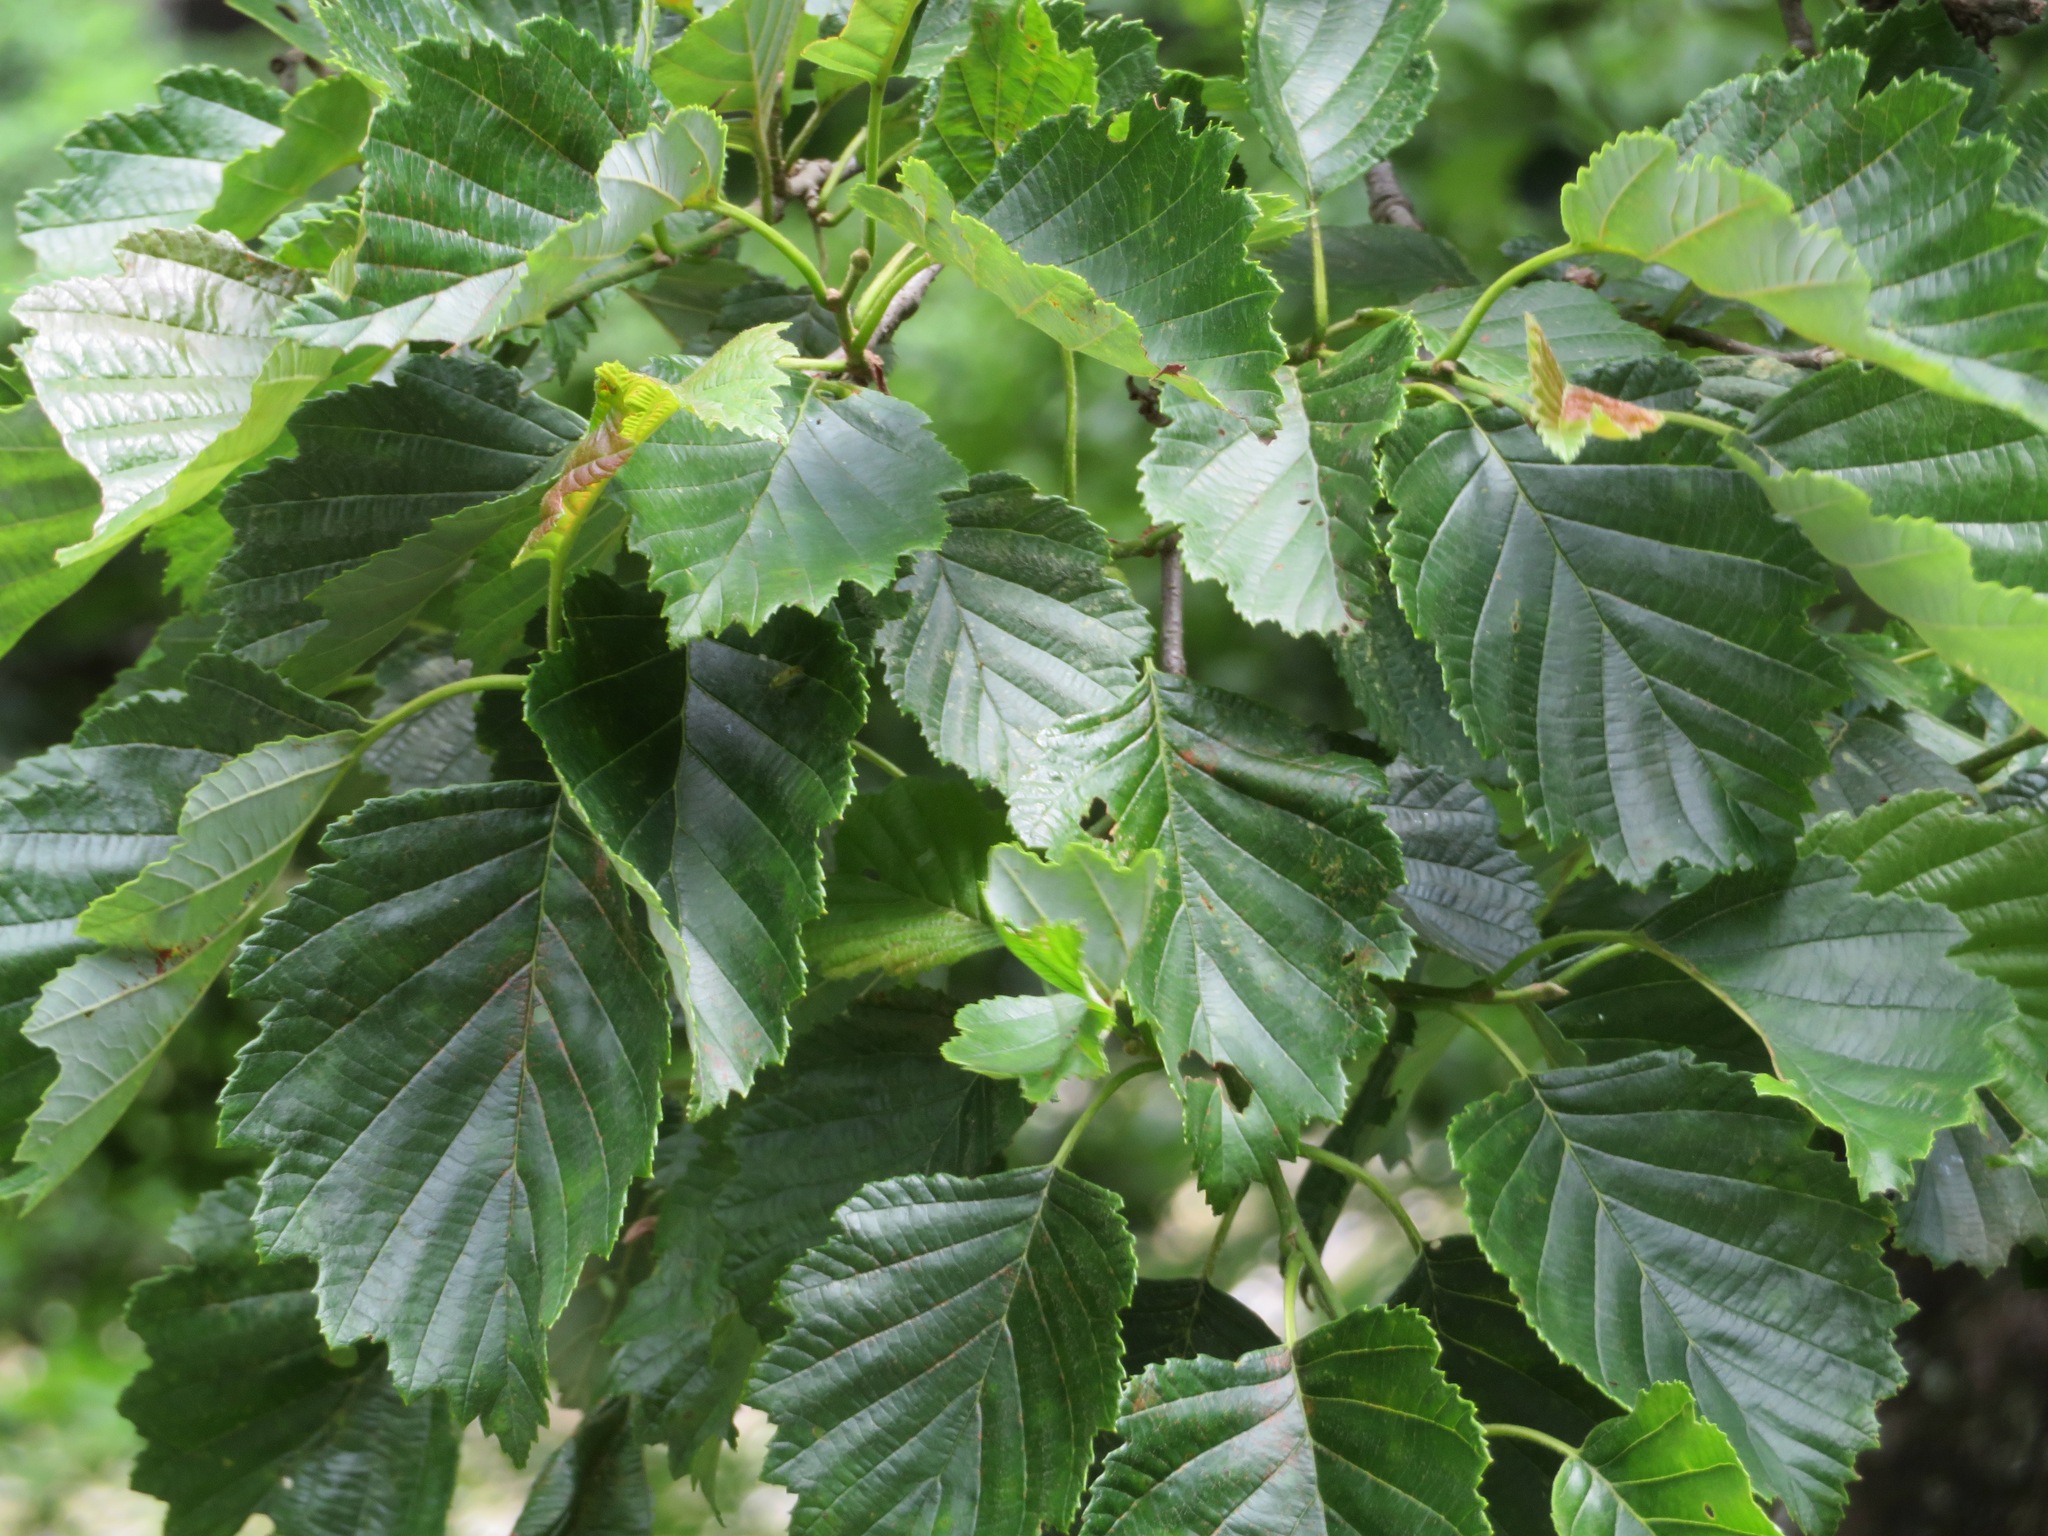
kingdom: Plantae
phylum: Tracheophyta
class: Magnoliopsida
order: Fagales
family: Betulaceae
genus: Alnus
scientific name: Alnus hirsuta
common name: Manchurian alder
